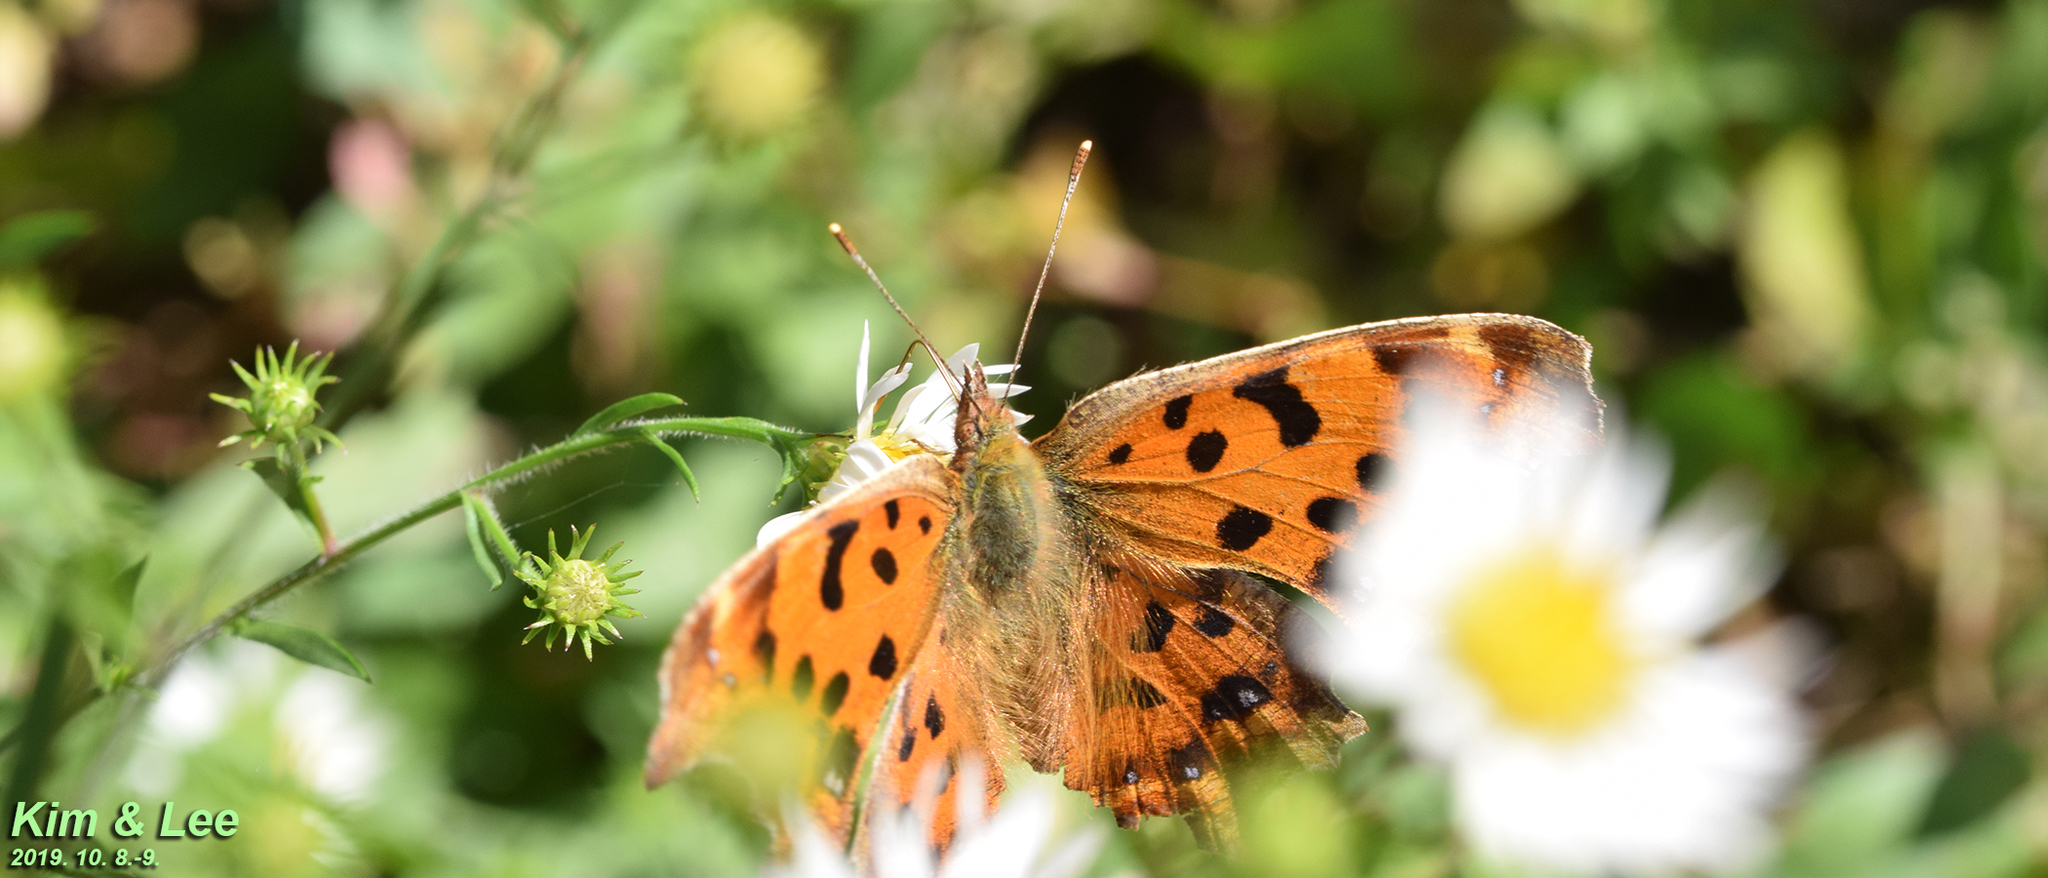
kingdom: Animalia
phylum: Arthropoda
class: Insecta
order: Lepidoptera
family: Nymphalidae
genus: Polygonia
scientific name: Polygonia c-aureum
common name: Asian comma
